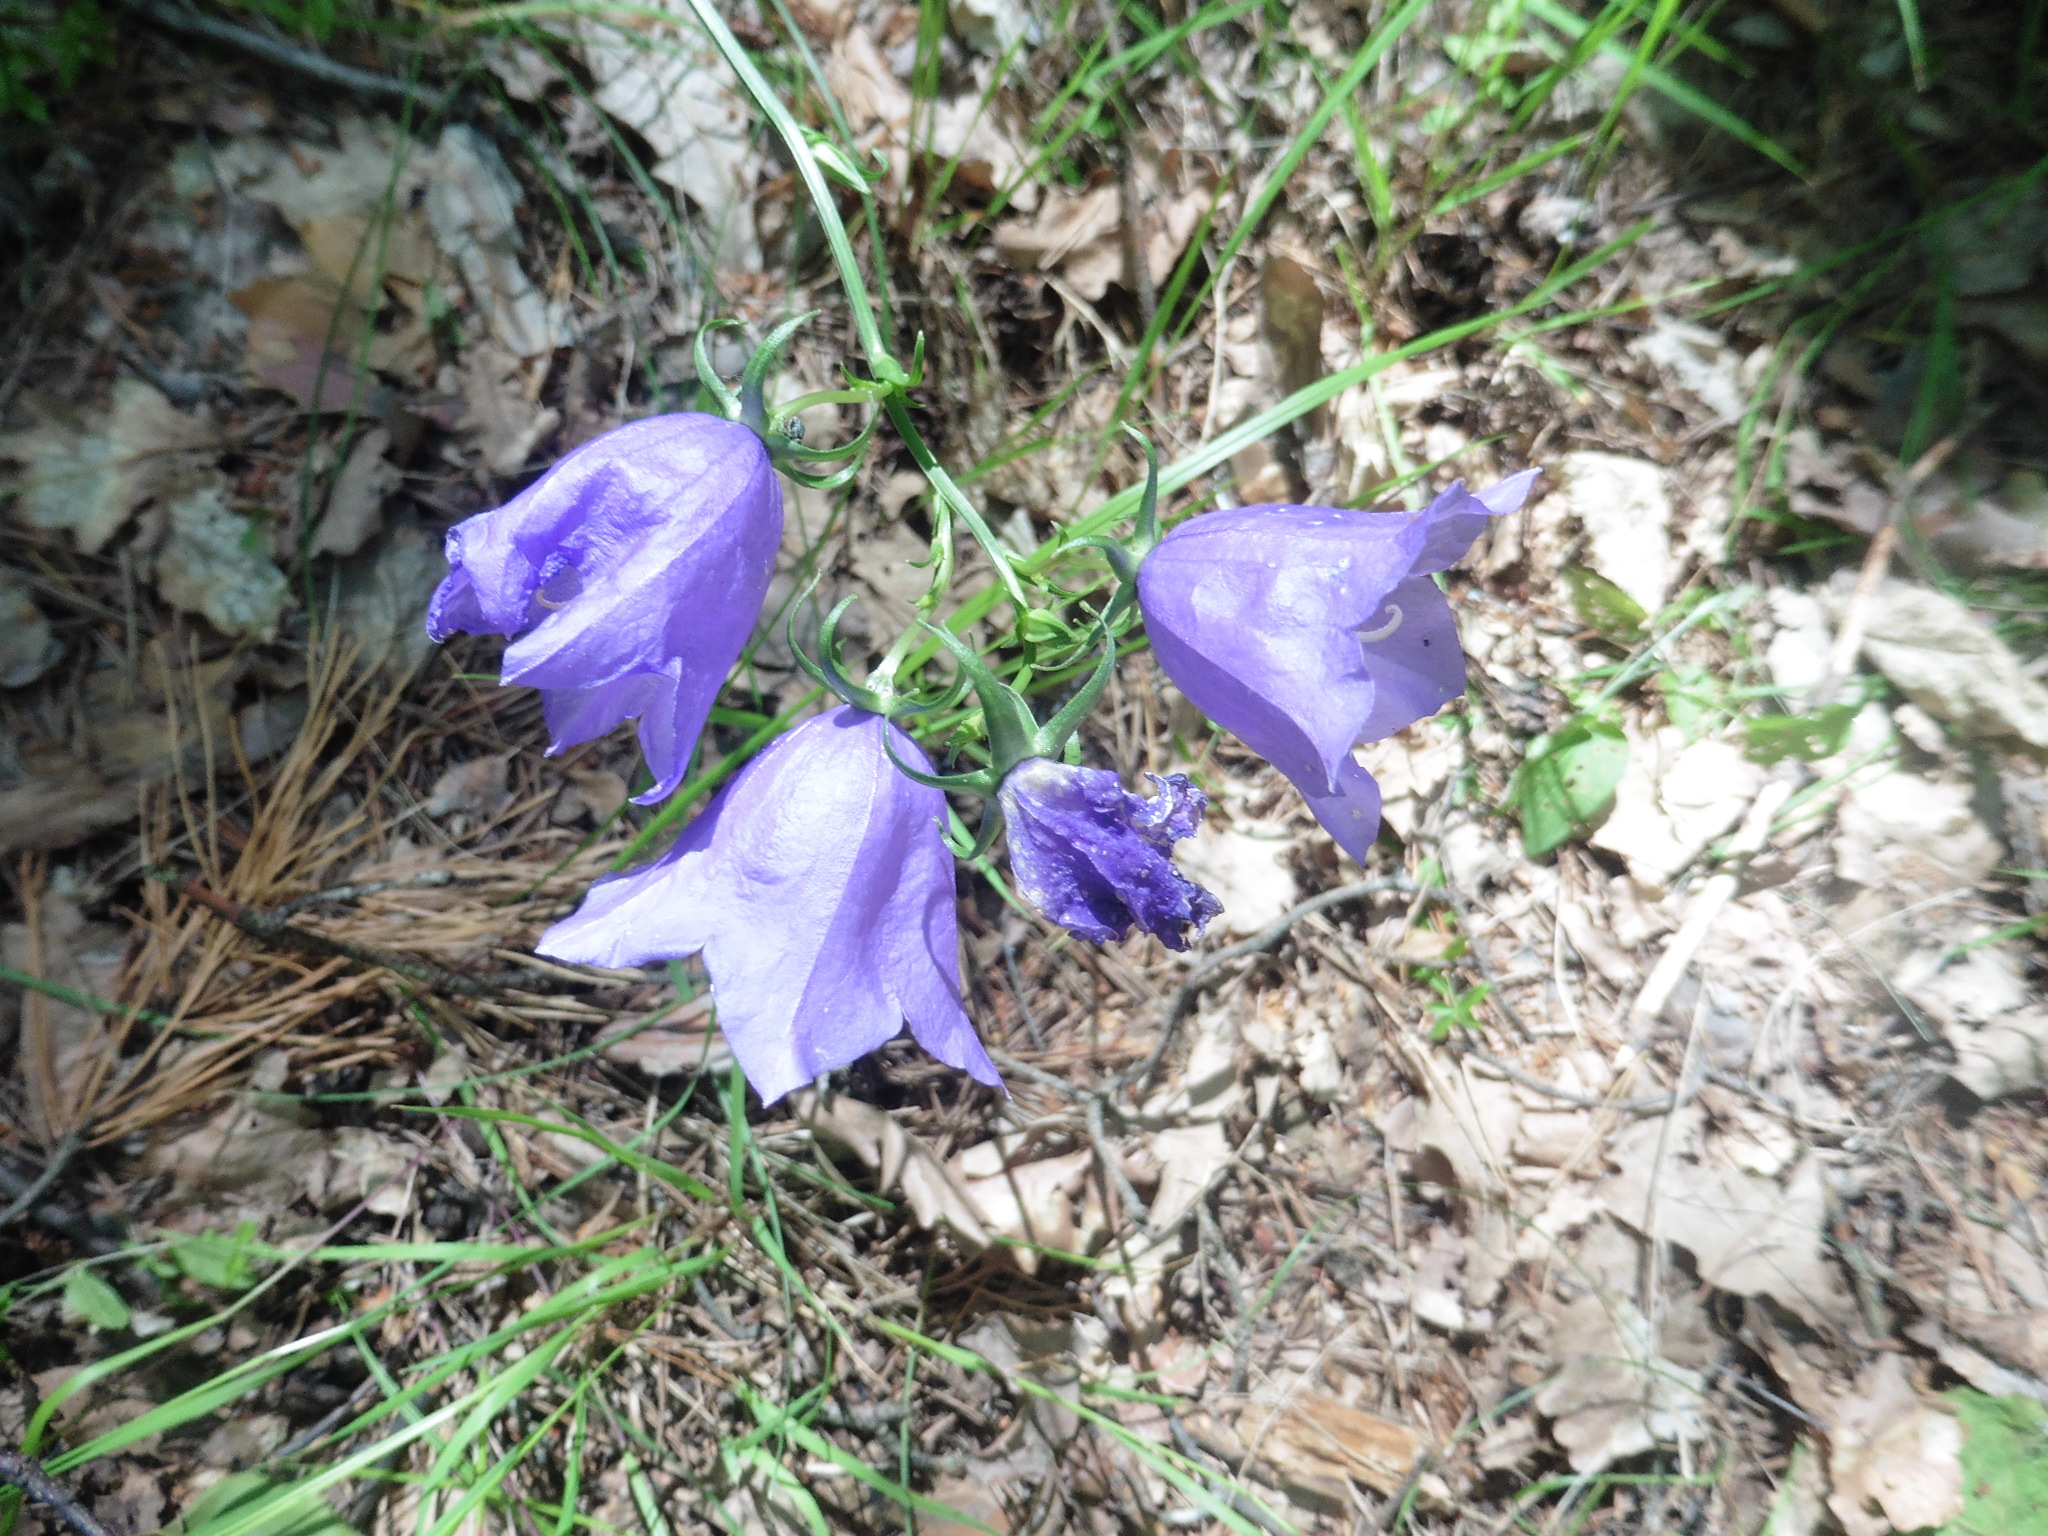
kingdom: Plantae
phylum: Tracheophyta
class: Magnoliopsida
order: Asterales
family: Campanulaceae
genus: Campanula
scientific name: Campanula persicifolia
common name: Peach-leaved bellflower
